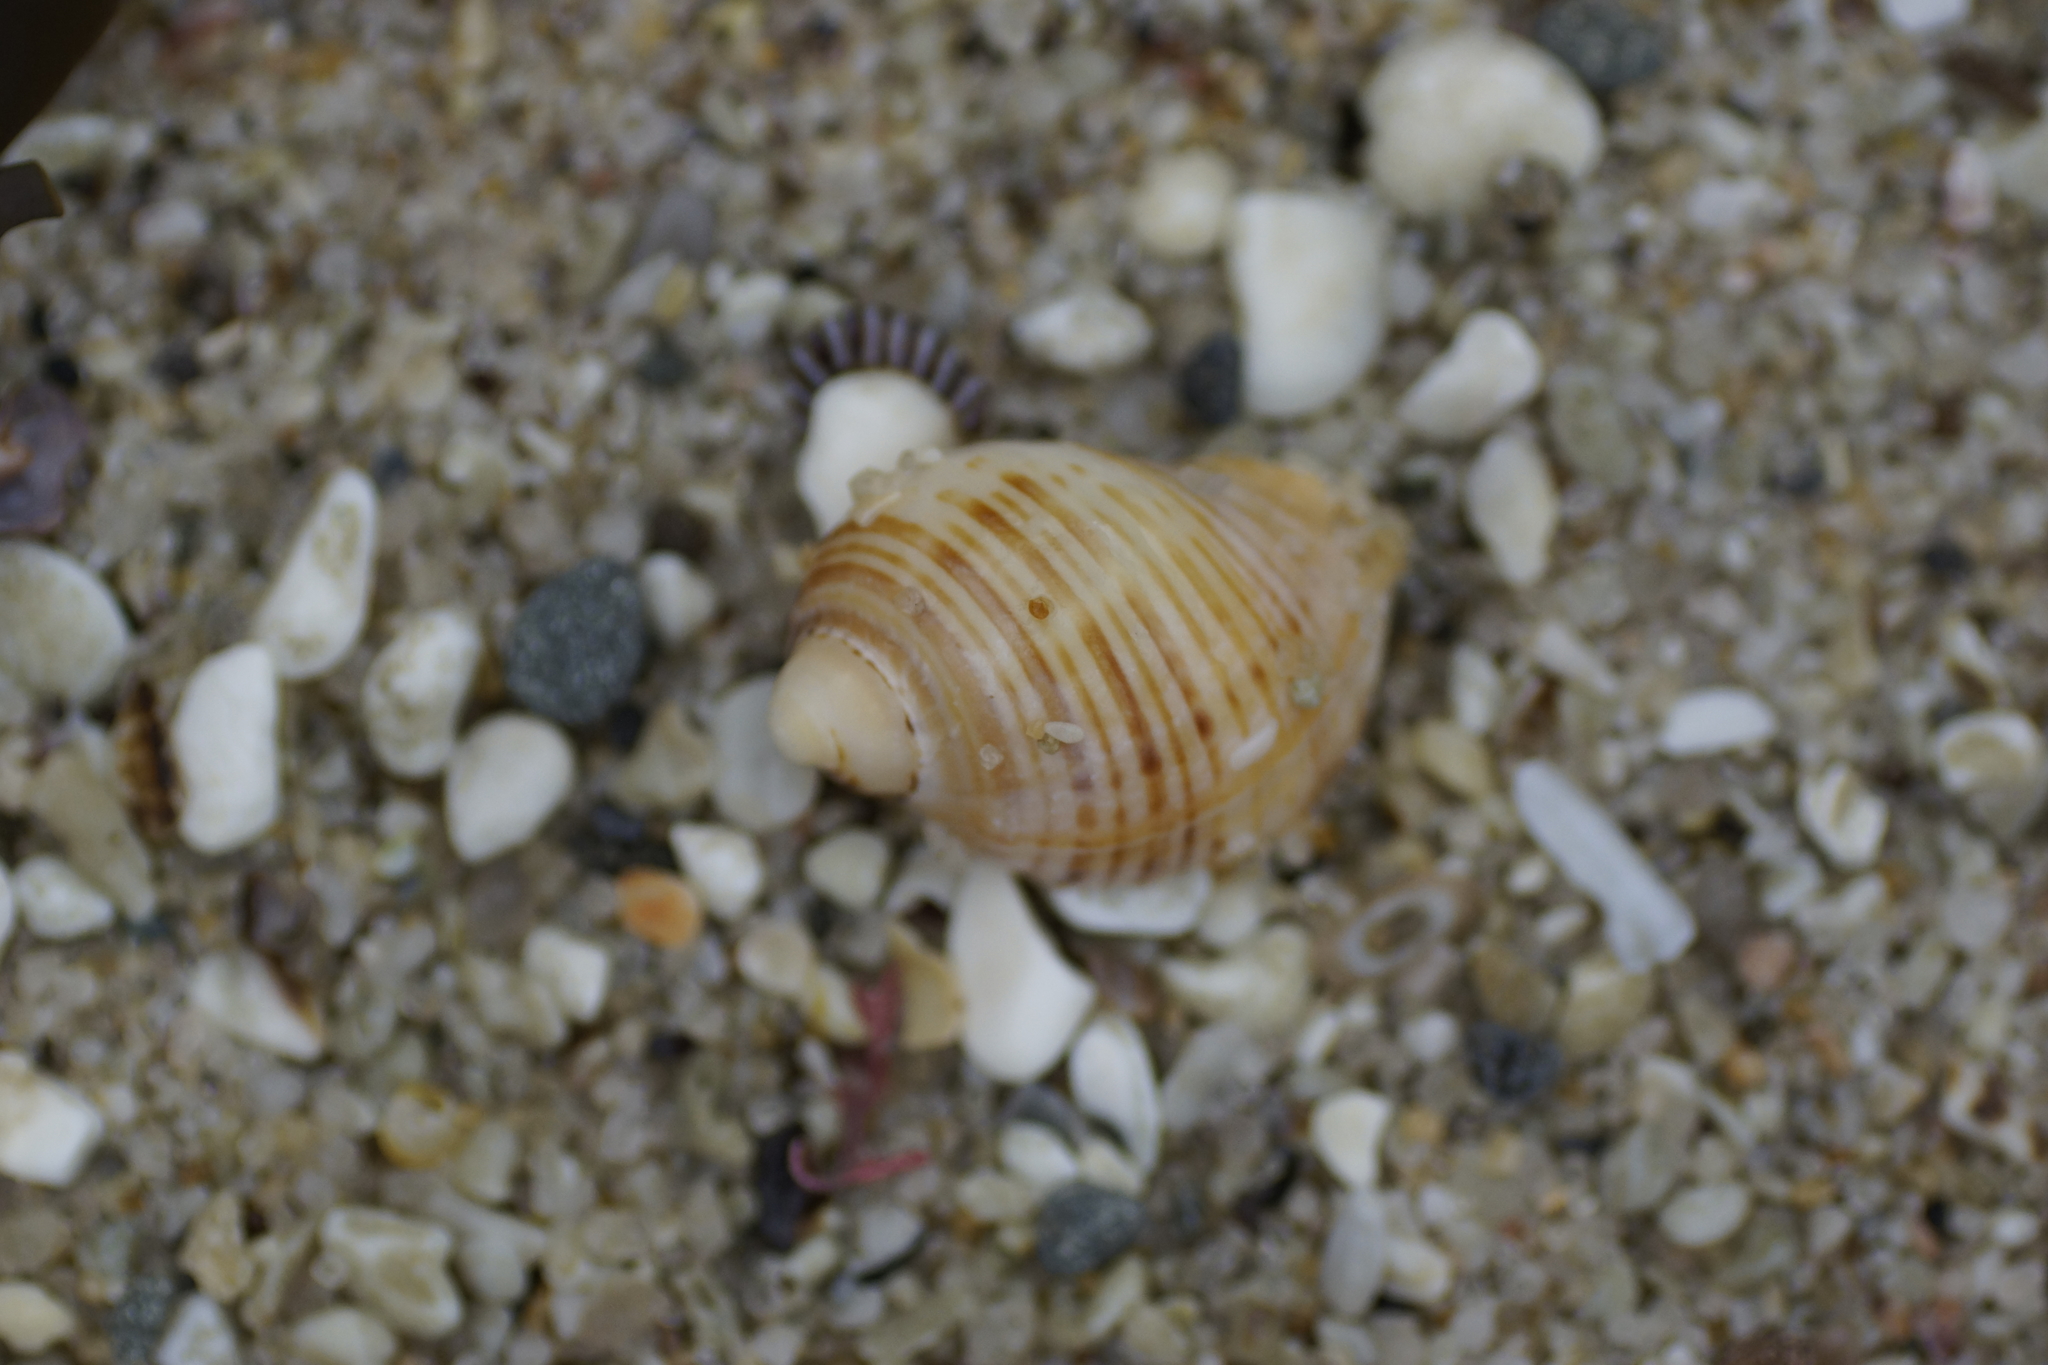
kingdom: Animalia
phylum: Mollusca
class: Gastropoda
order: Neogastropoda
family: Muricidae
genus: Dicathais
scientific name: Dicathais orbita
